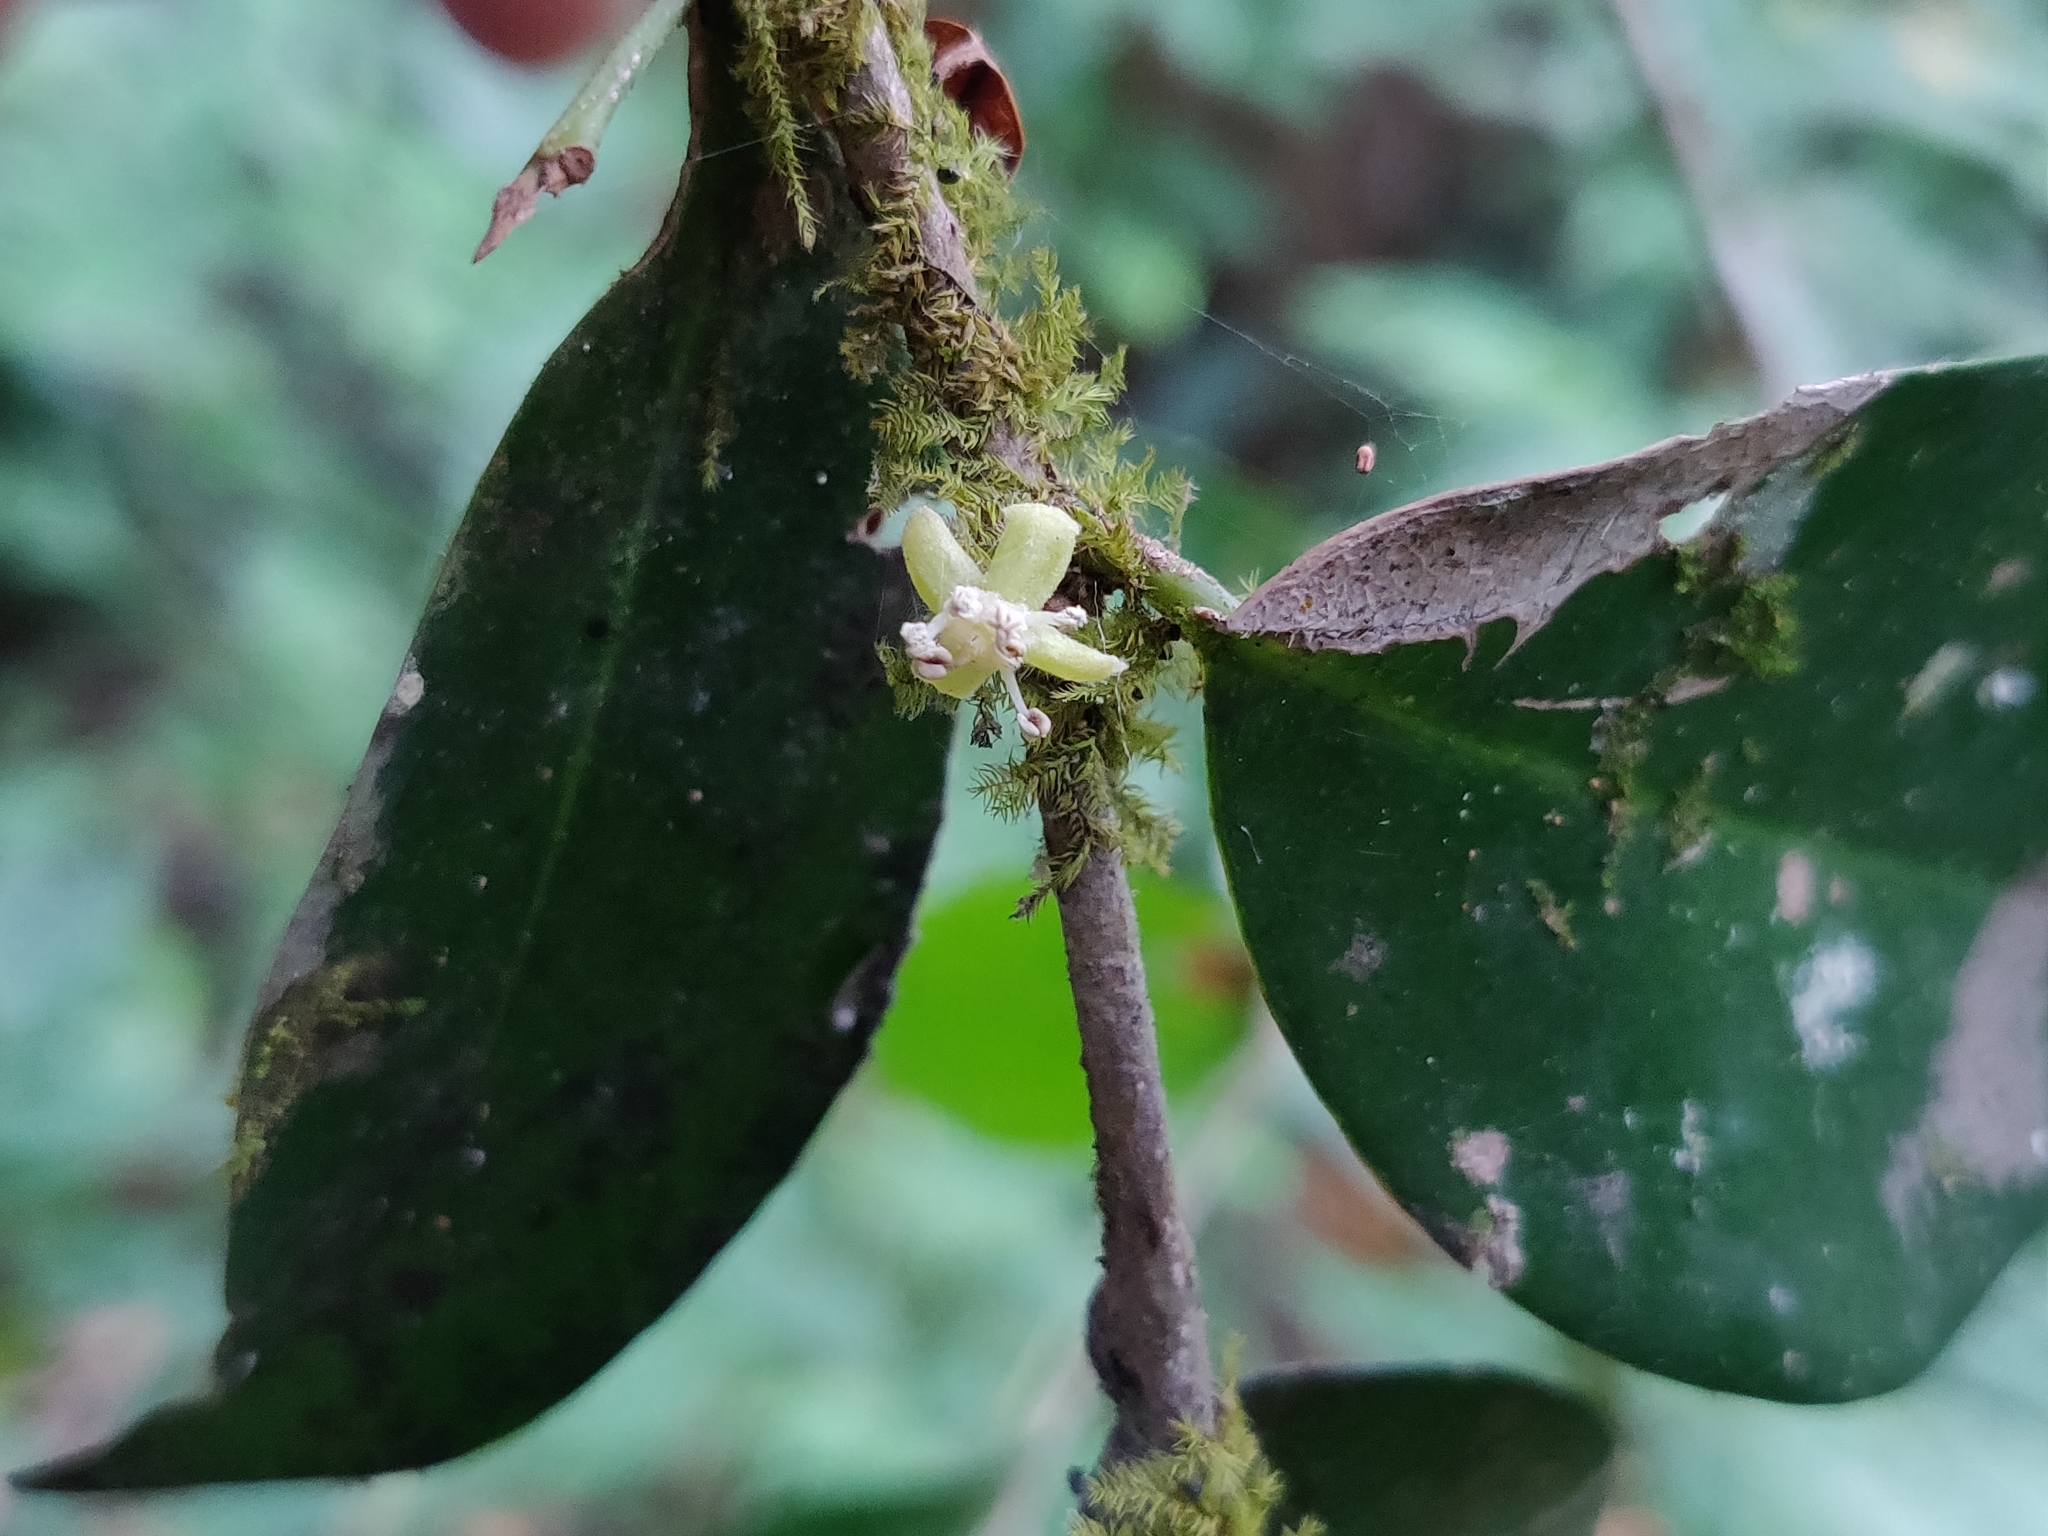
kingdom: Plantae
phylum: Tracheophyta
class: Magnoliopsida
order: Malpighiales
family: Putranjivaceae
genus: Drypetes
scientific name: Drypetes wightii
